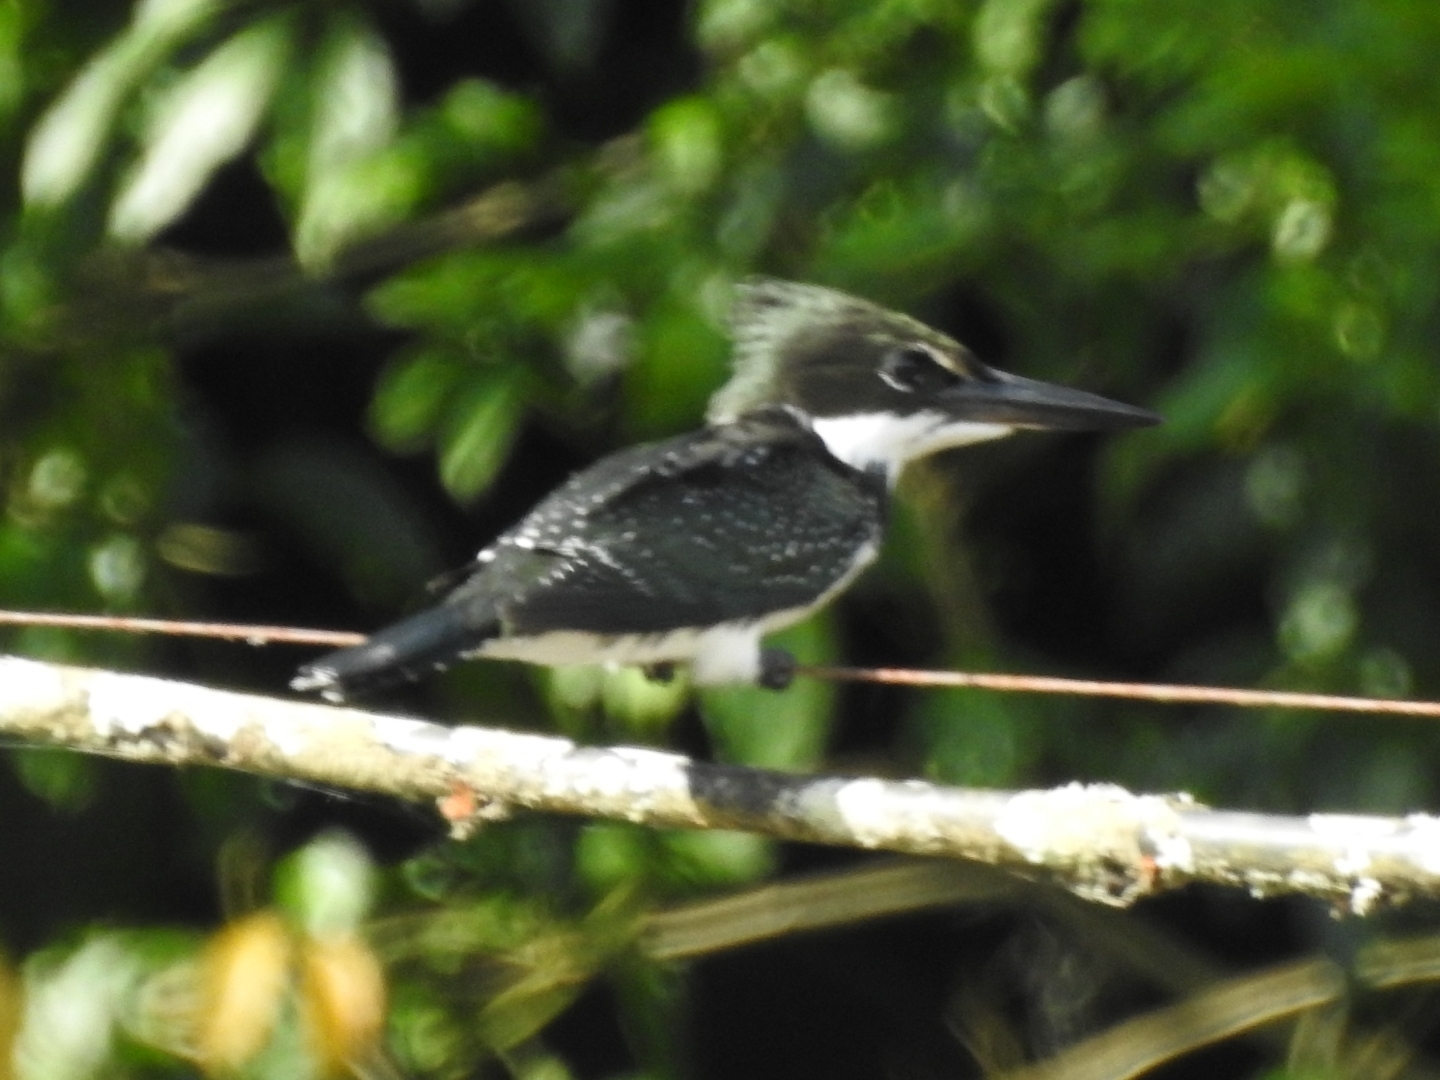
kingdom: Animalia
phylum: Chordata
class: Aves
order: Coraciiformes
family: Alcedinidae
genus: Chloroceryle
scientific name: Chloroceryle americana
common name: Green kingfisher
